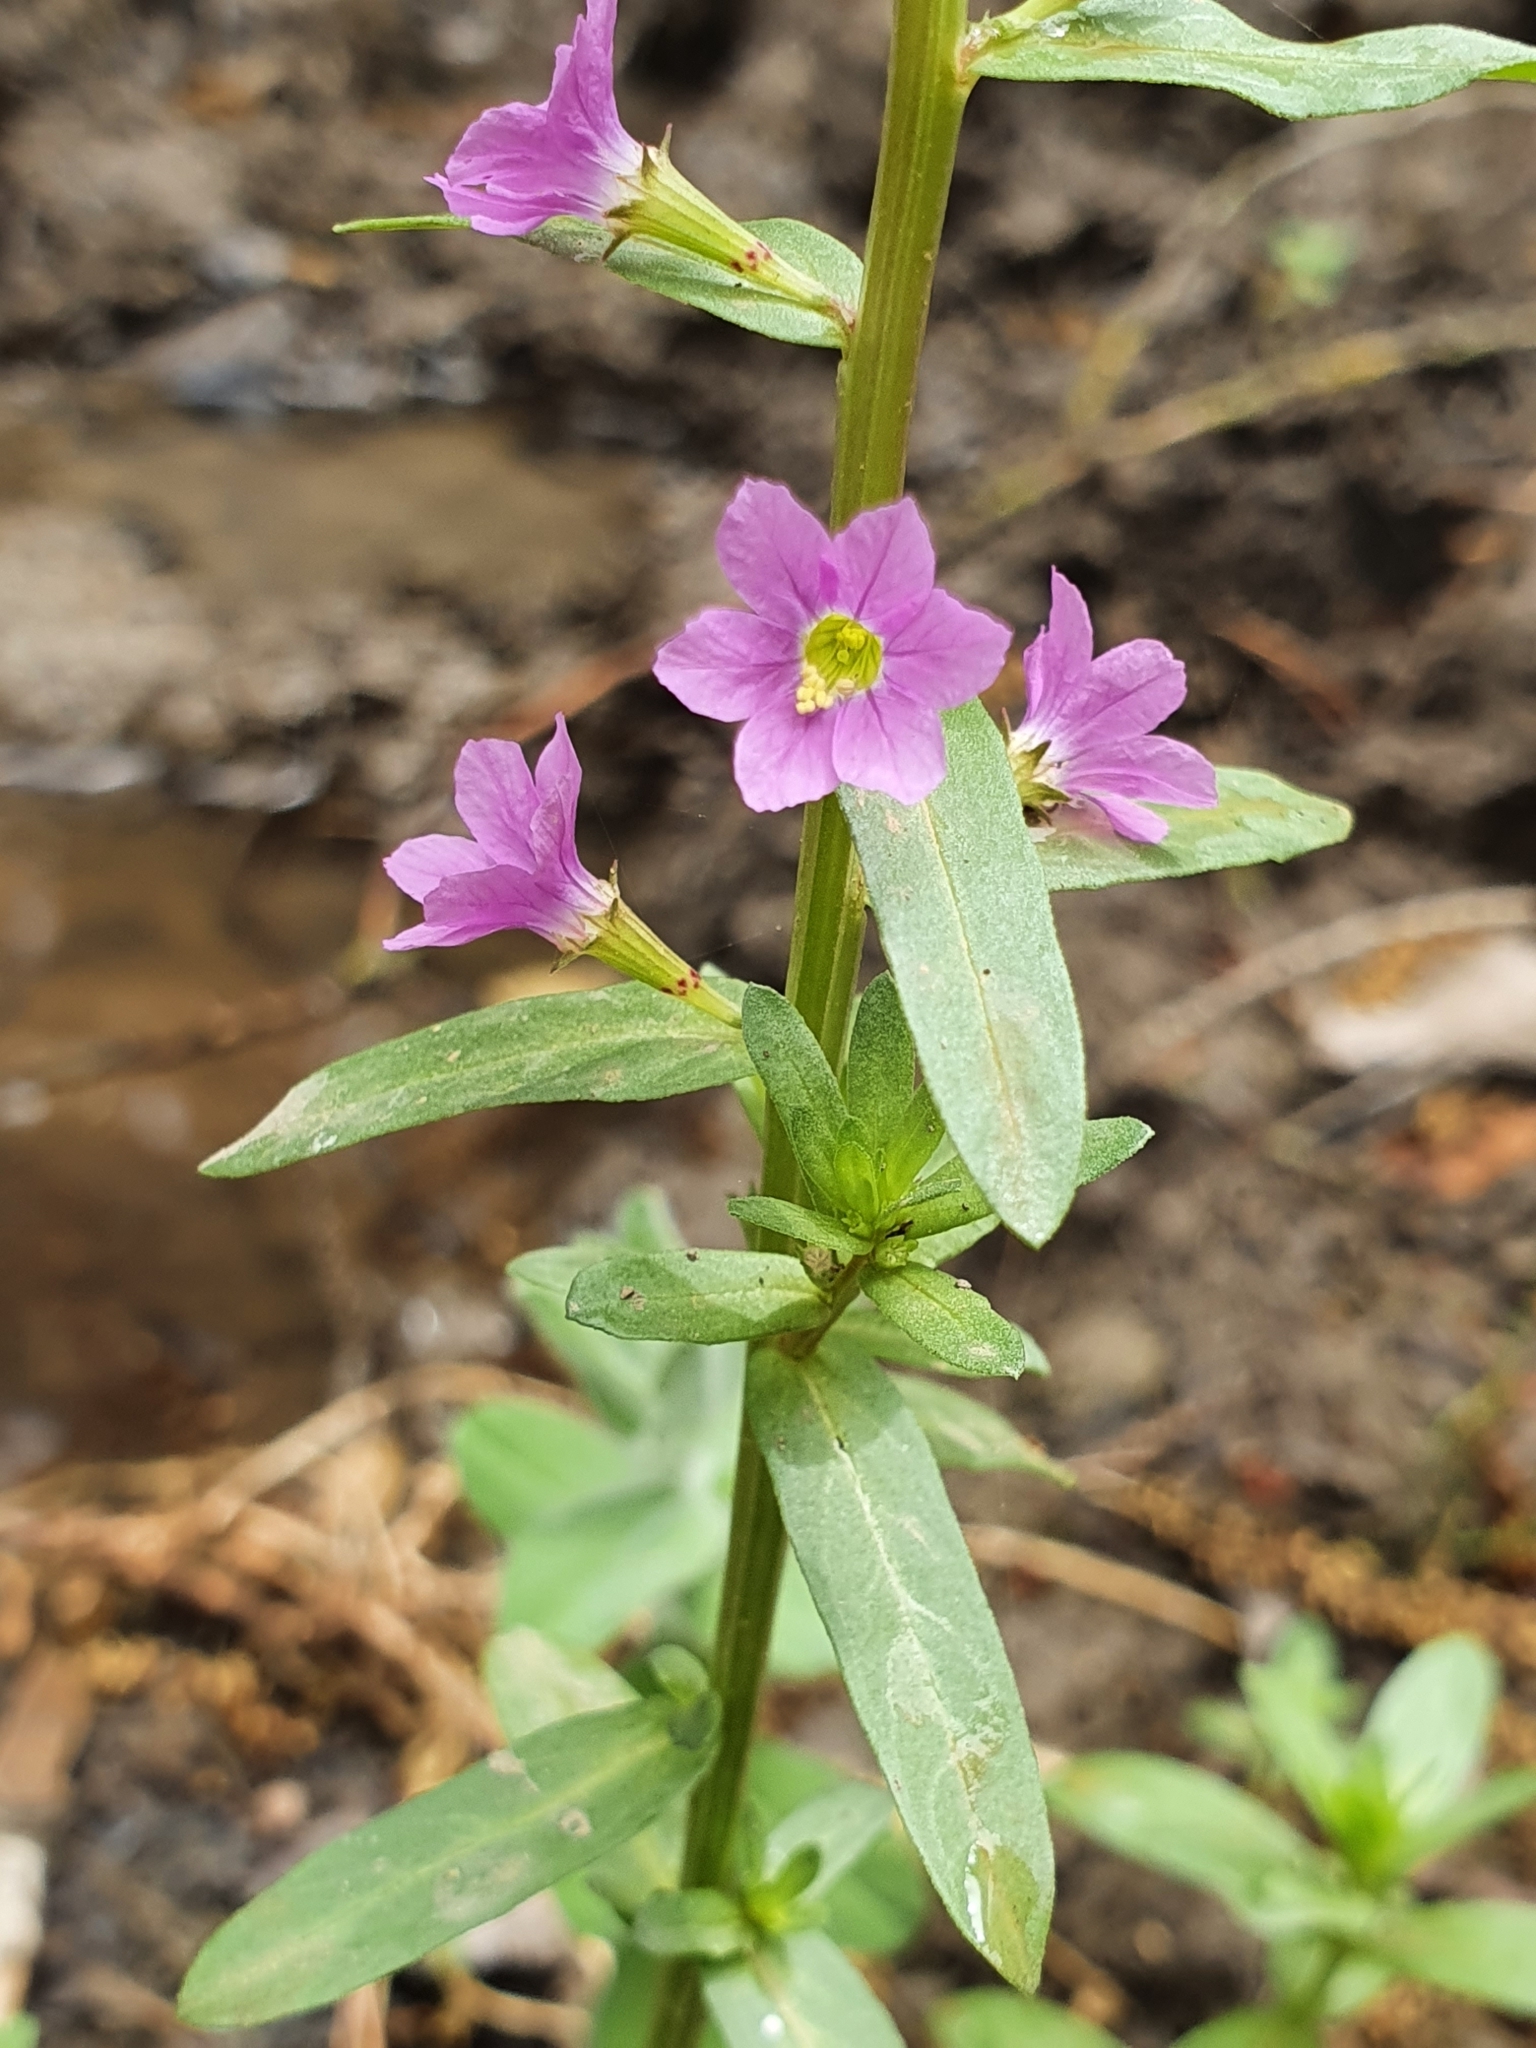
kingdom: Plantae
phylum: Tracheophyta
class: Magnoliopsida
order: Myrtales
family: Lythraceae
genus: Lythrum
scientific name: Lythrum junceum
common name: False grass-poly
